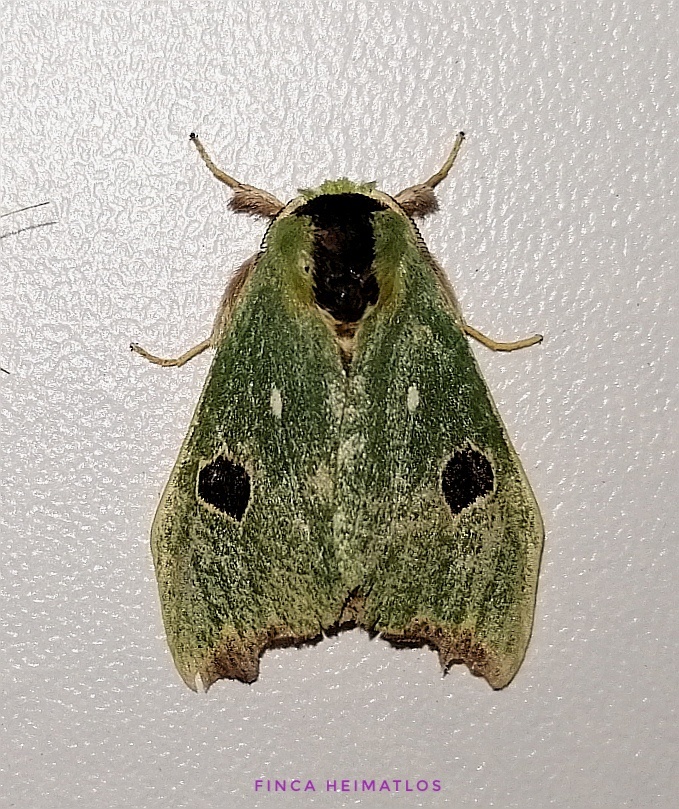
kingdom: Animalia
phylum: Arthropoda
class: Insecta
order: Lepidoptera
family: Notodontidae
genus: Rosema
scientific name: Rosema deolis
